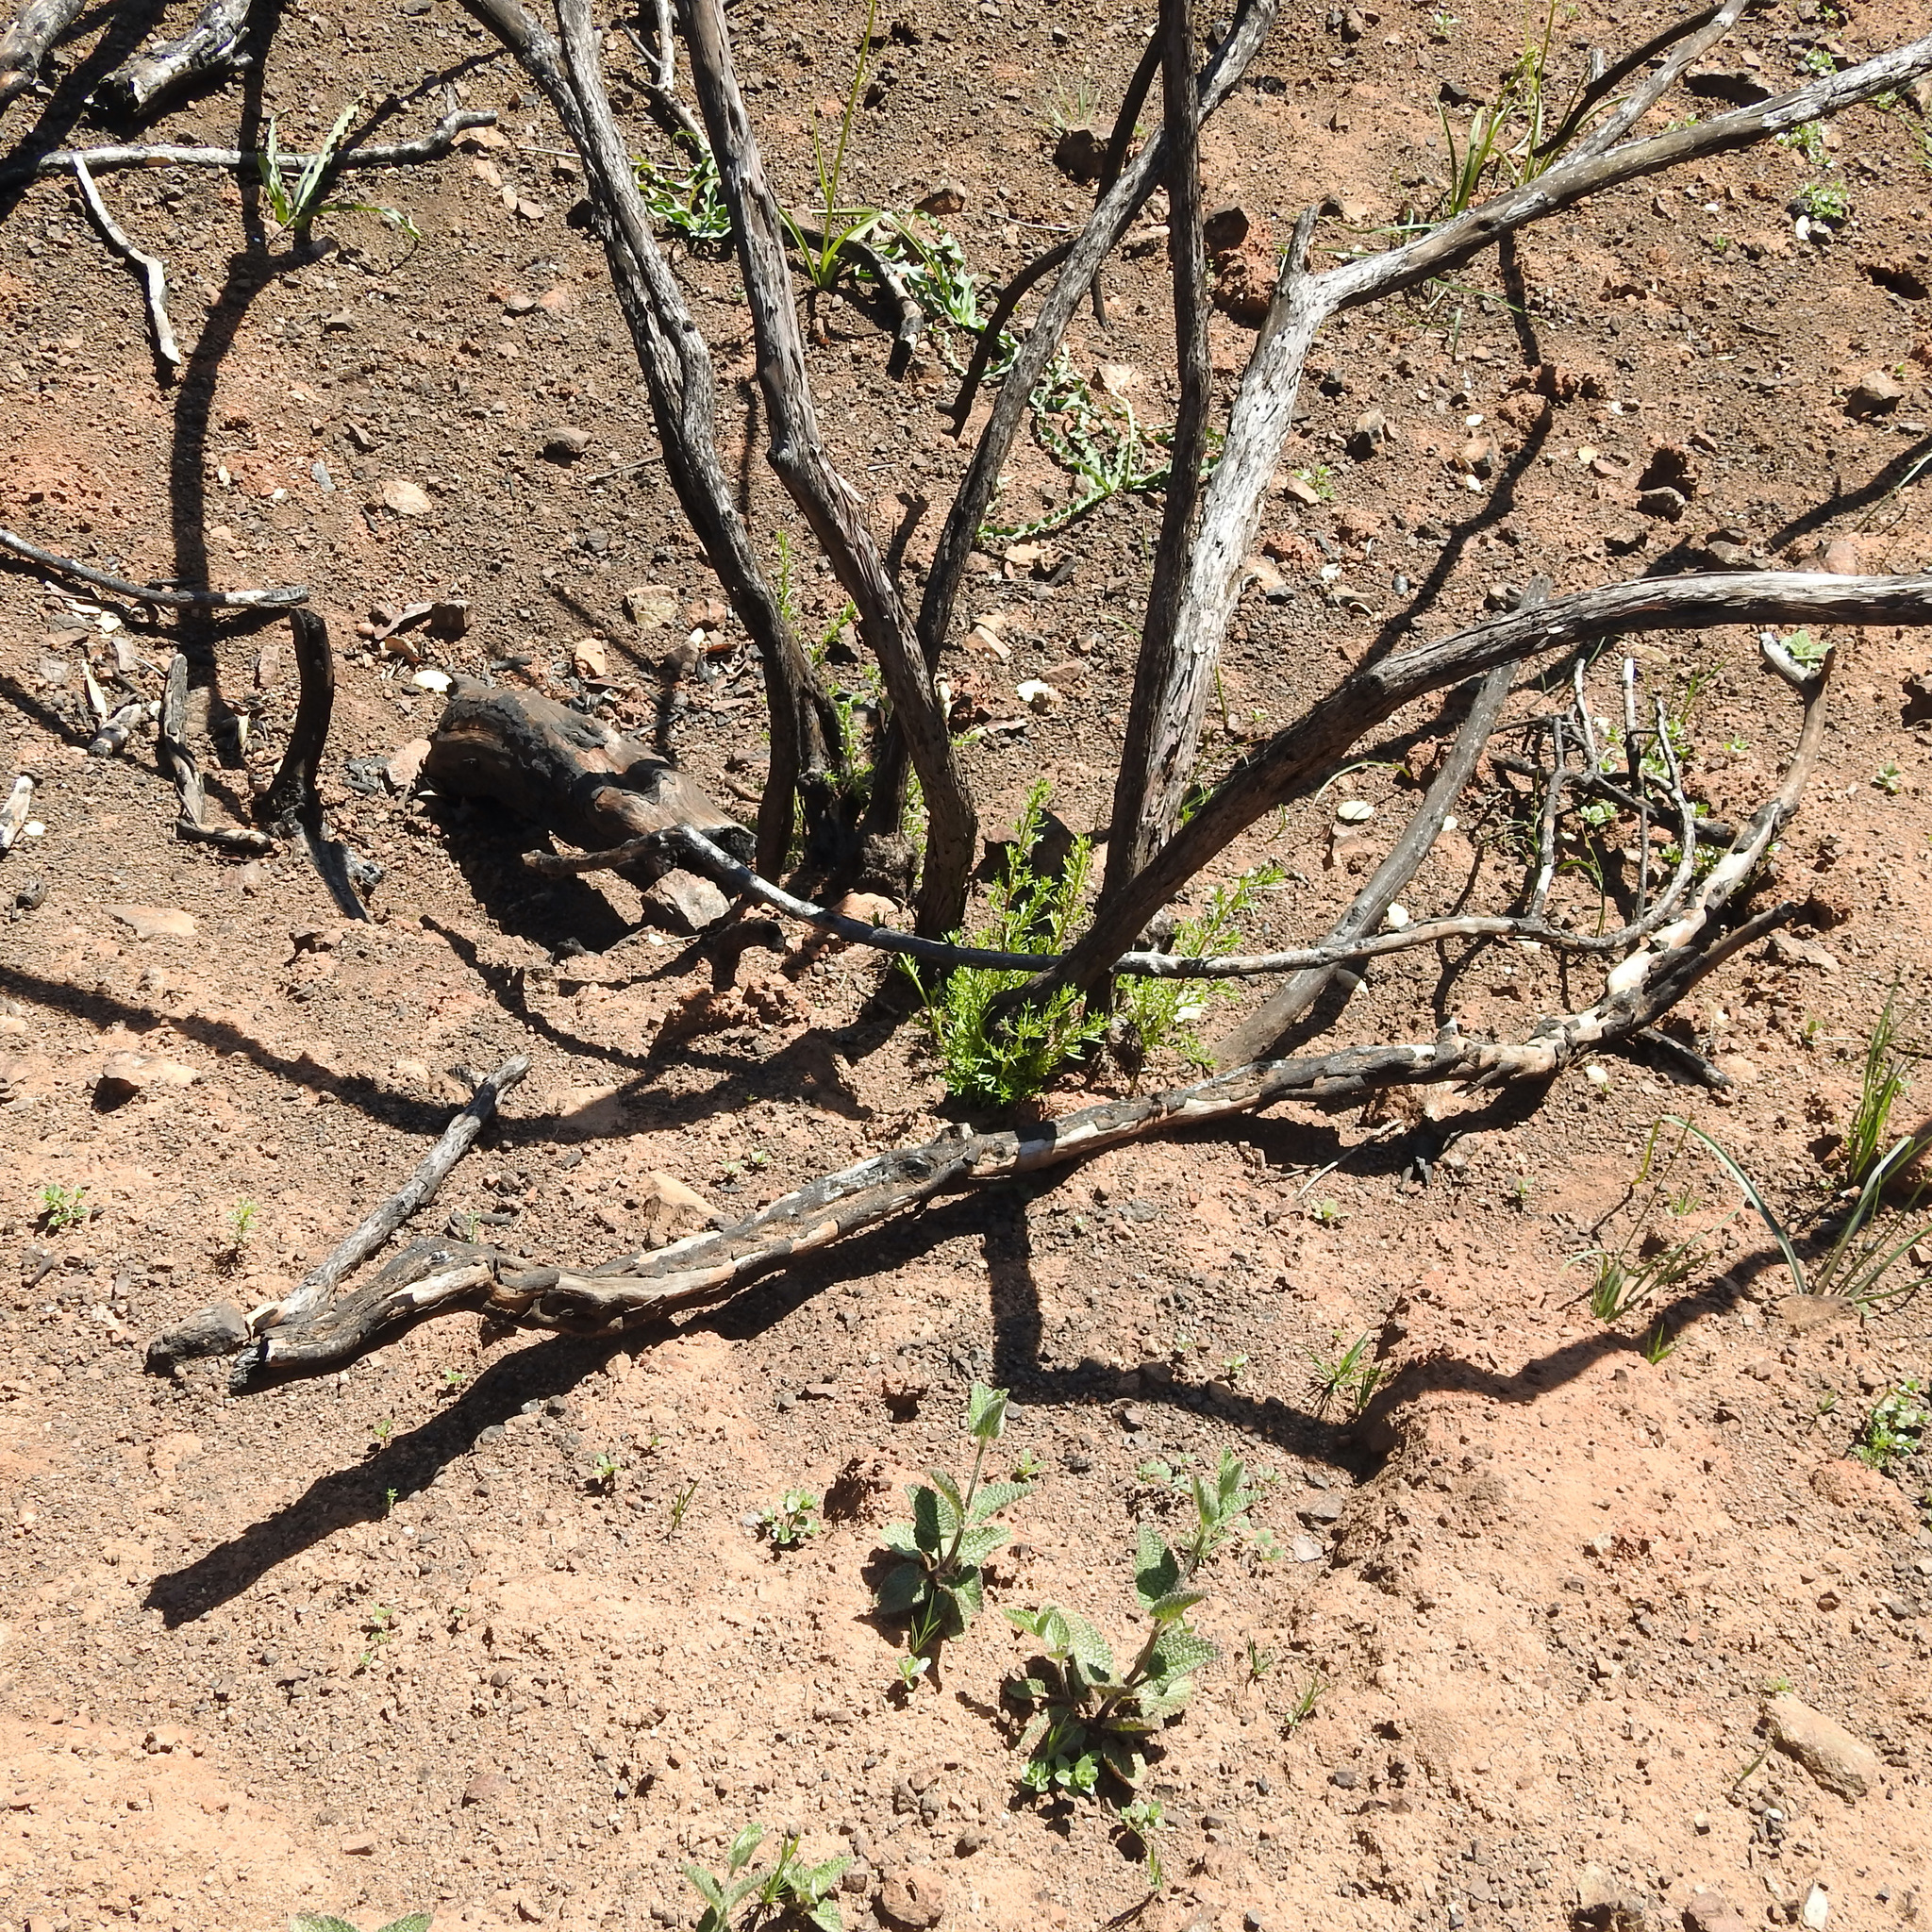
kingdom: Plantae
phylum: Tracheophyta
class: Magnoliopsida
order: Rosales
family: Rosaceae
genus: Adenostoma
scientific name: Adenostoma fasciculatum
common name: Chamise
